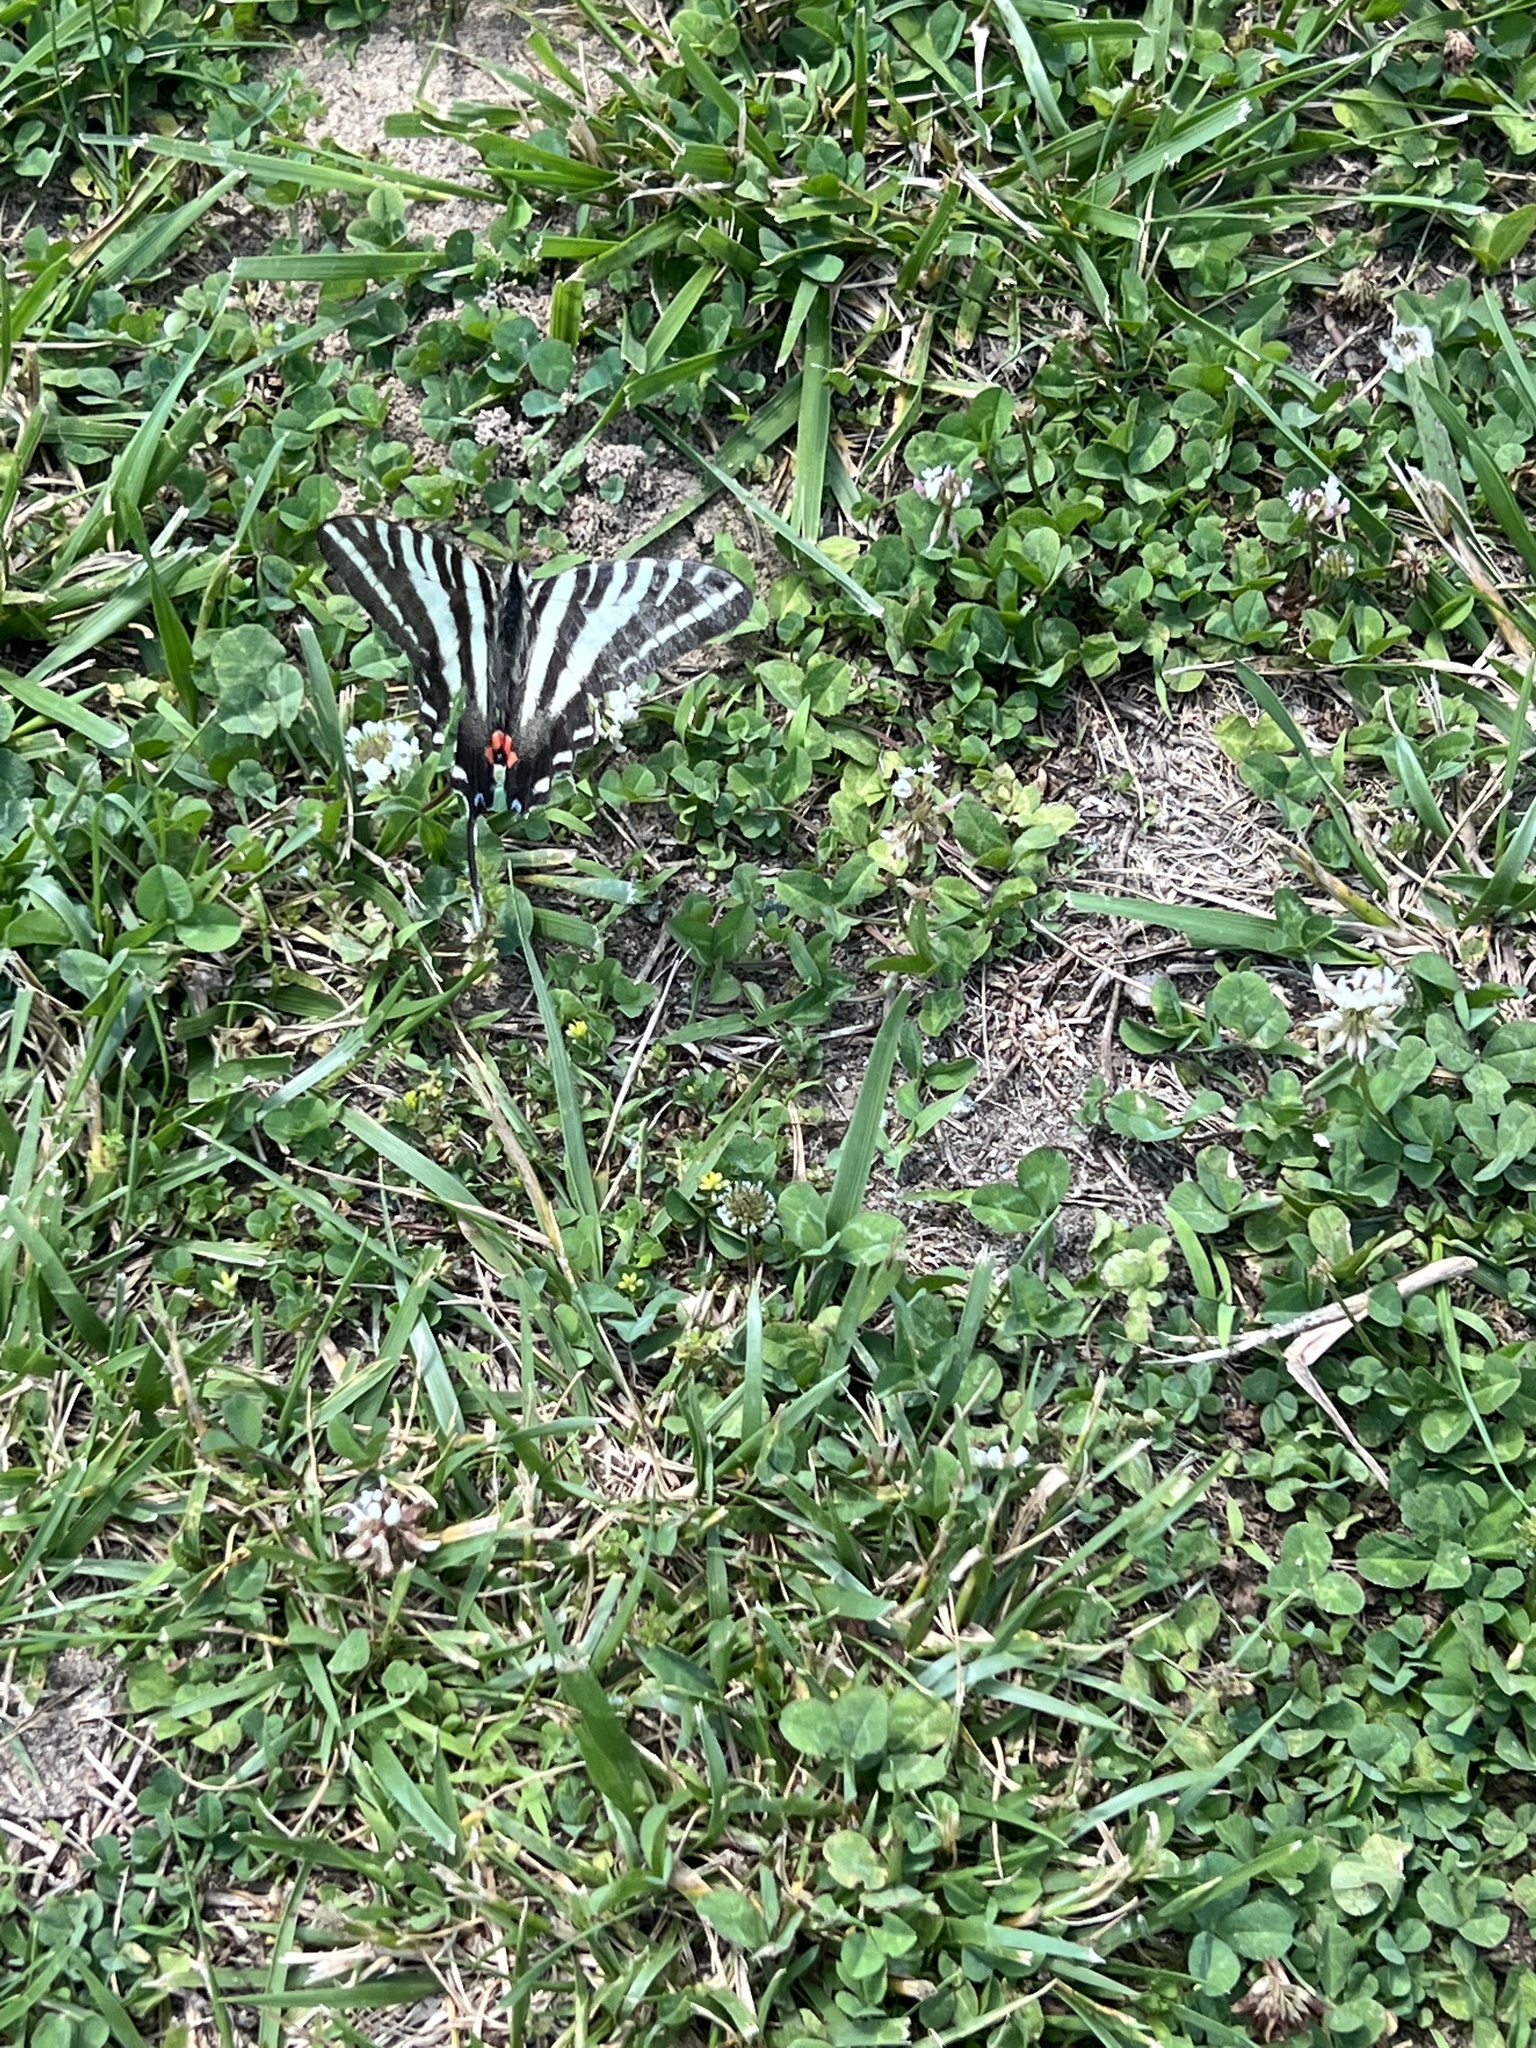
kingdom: Animalia
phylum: Arthropoda
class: Insecta
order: Lepidoptera
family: Papilionidae
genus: Protographium
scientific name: Protographium marcellus
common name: Zebra swallowtail
